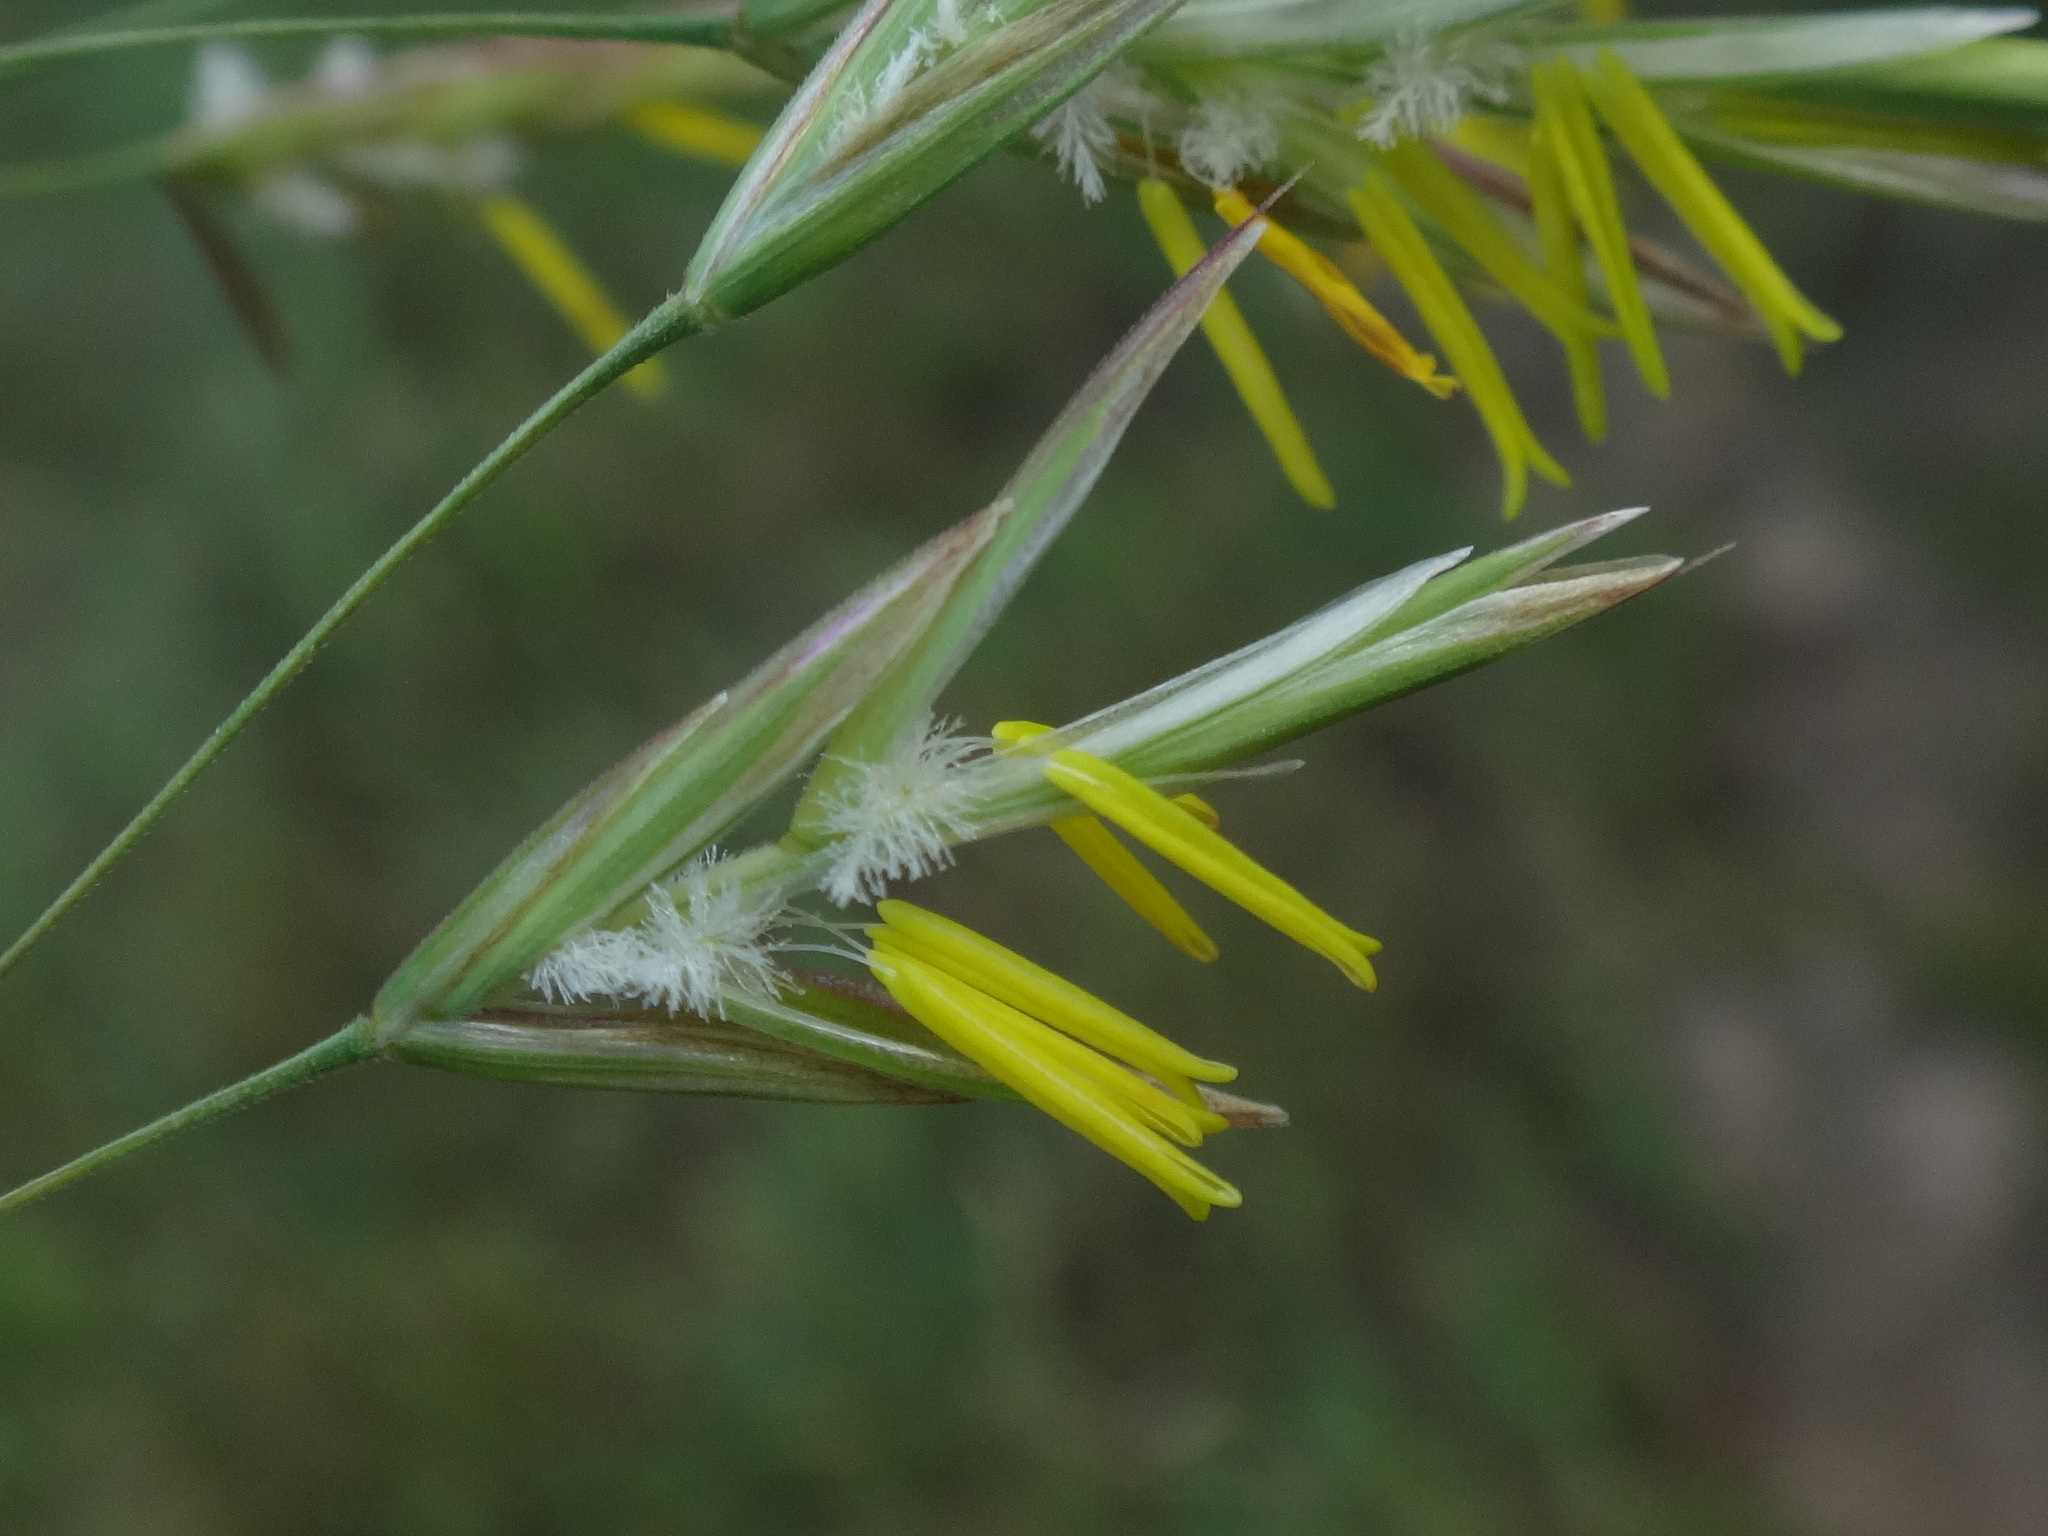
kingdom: Plantae
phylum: Tracheophyta
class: Liliopsida
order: Poales
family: Poaceae
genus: Bromus
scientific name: Bromus inermis
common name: Smooth brome
